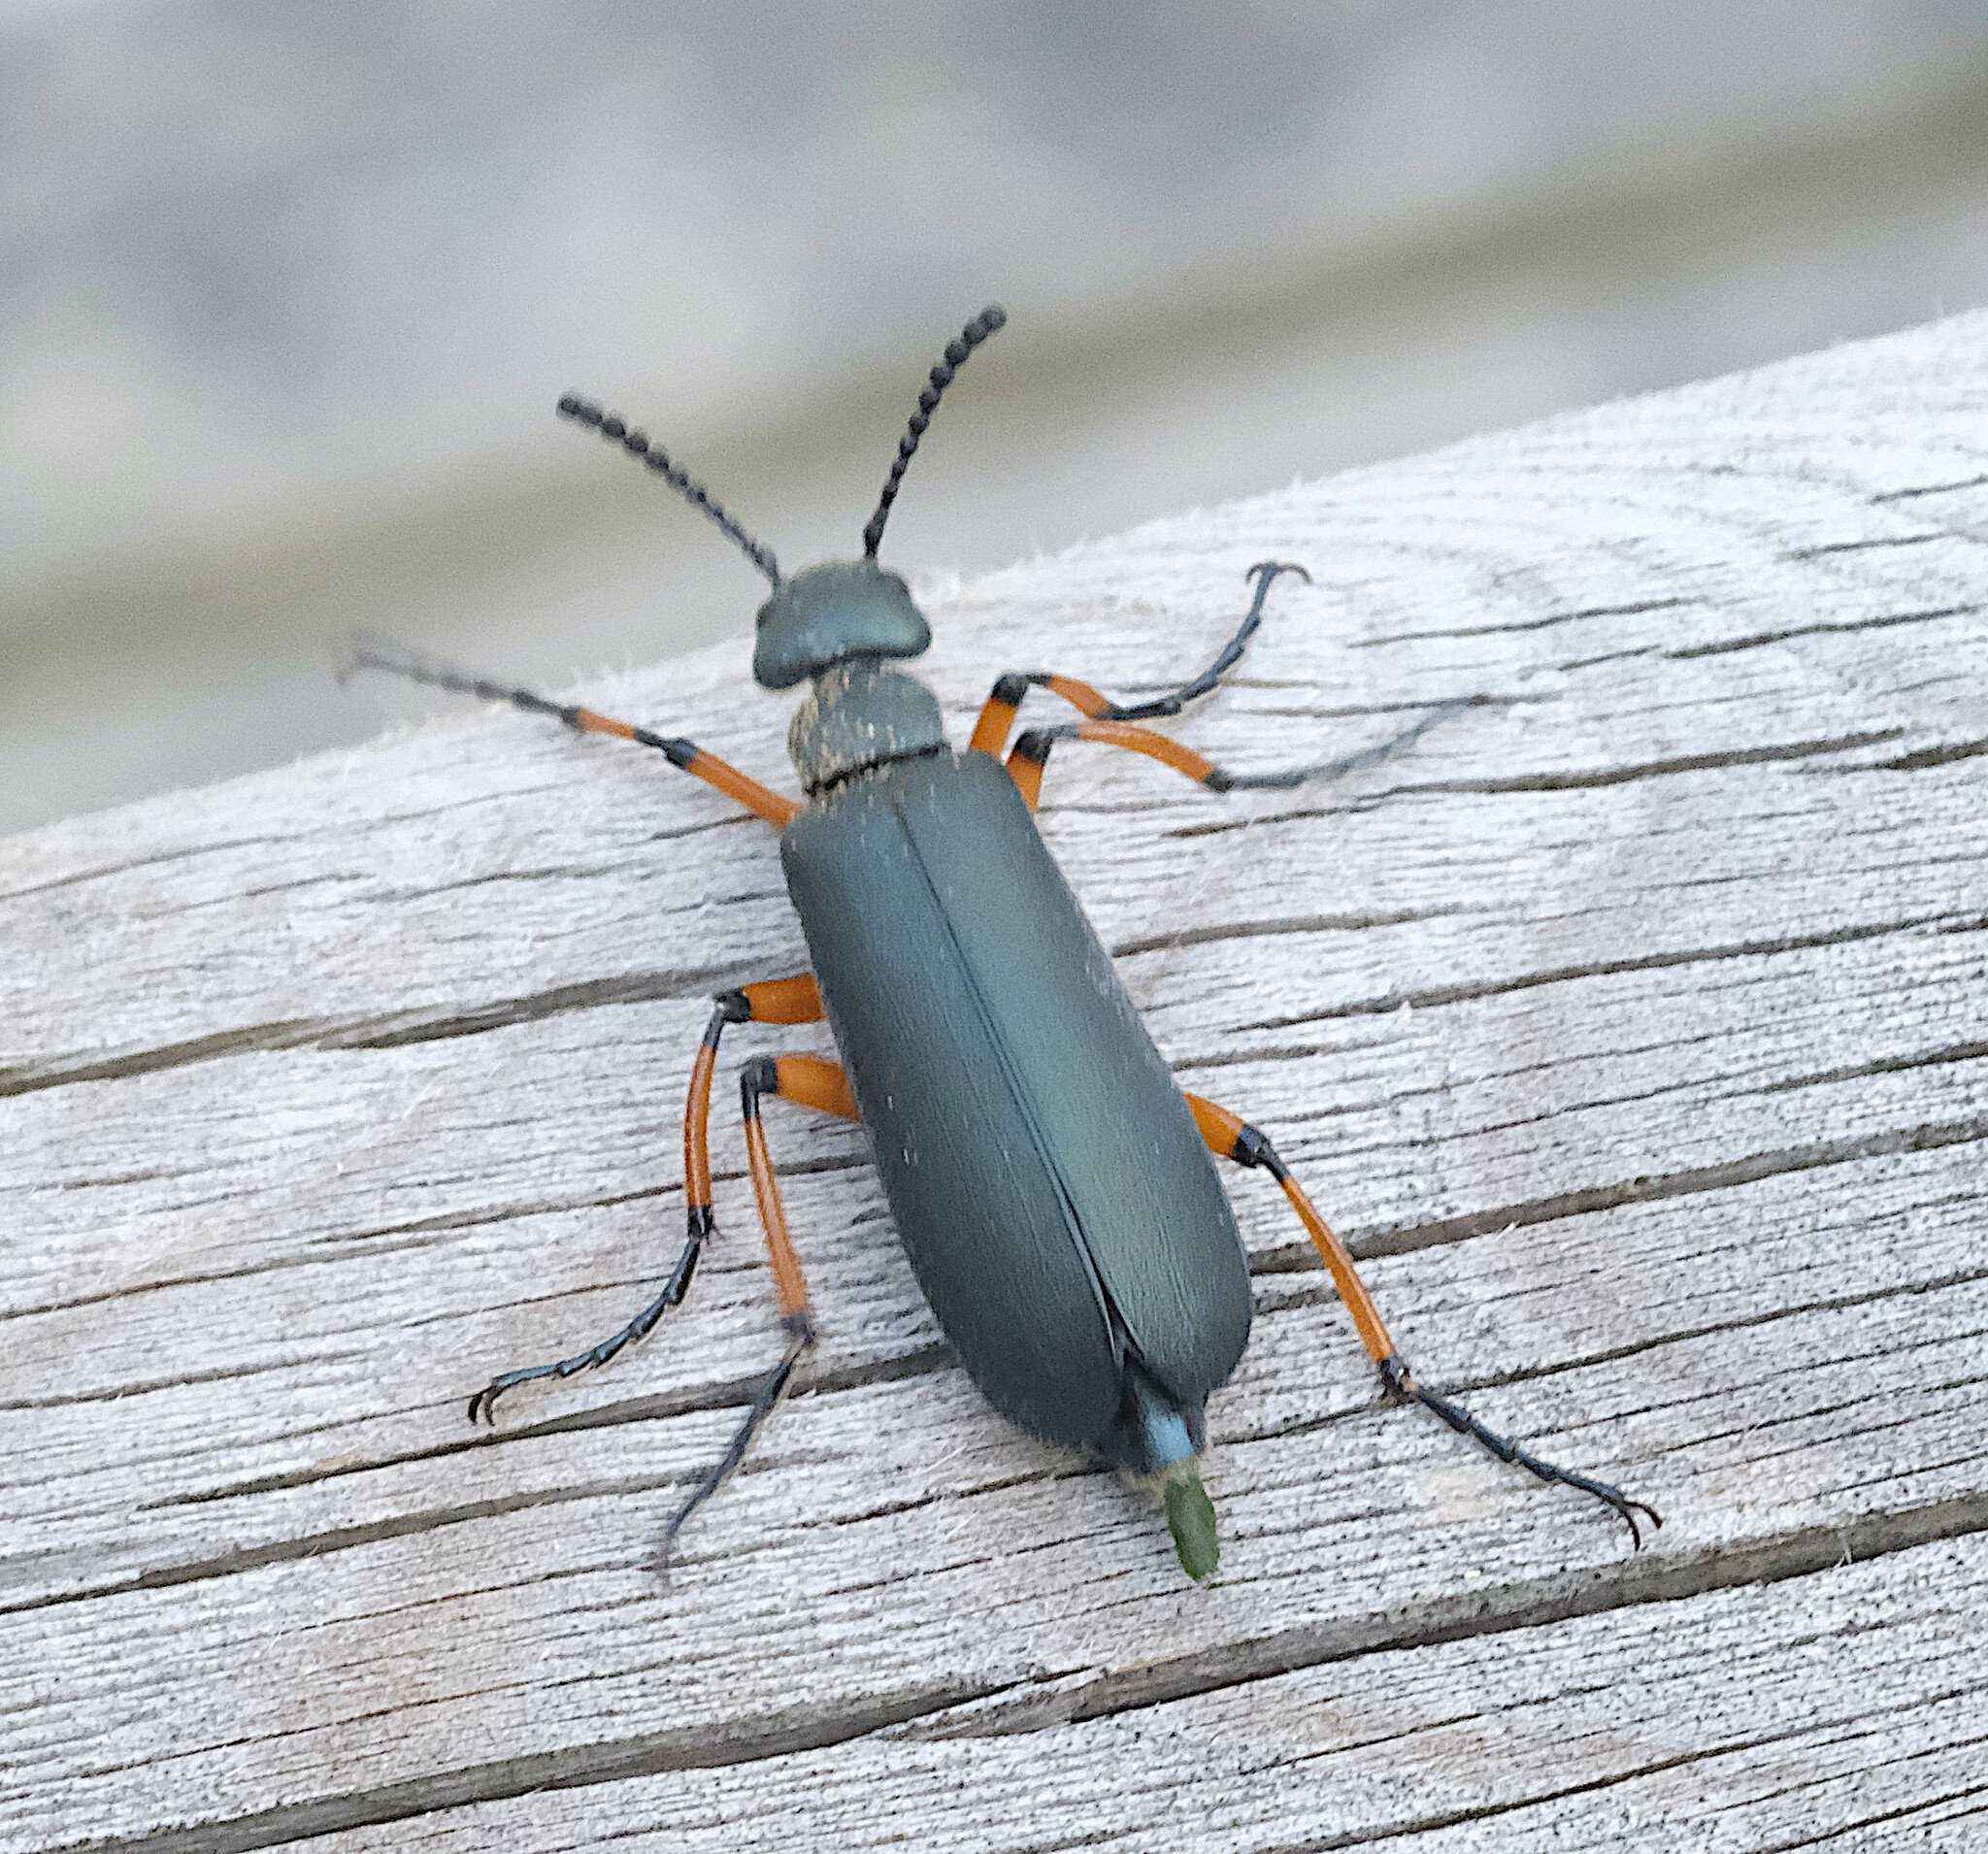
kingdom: Animalia
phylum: Arthropoda
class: Insecta
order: Coleoptera
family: Meloidae
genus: Lytta
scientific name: Lytta sayi
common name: Say's blister beetle
